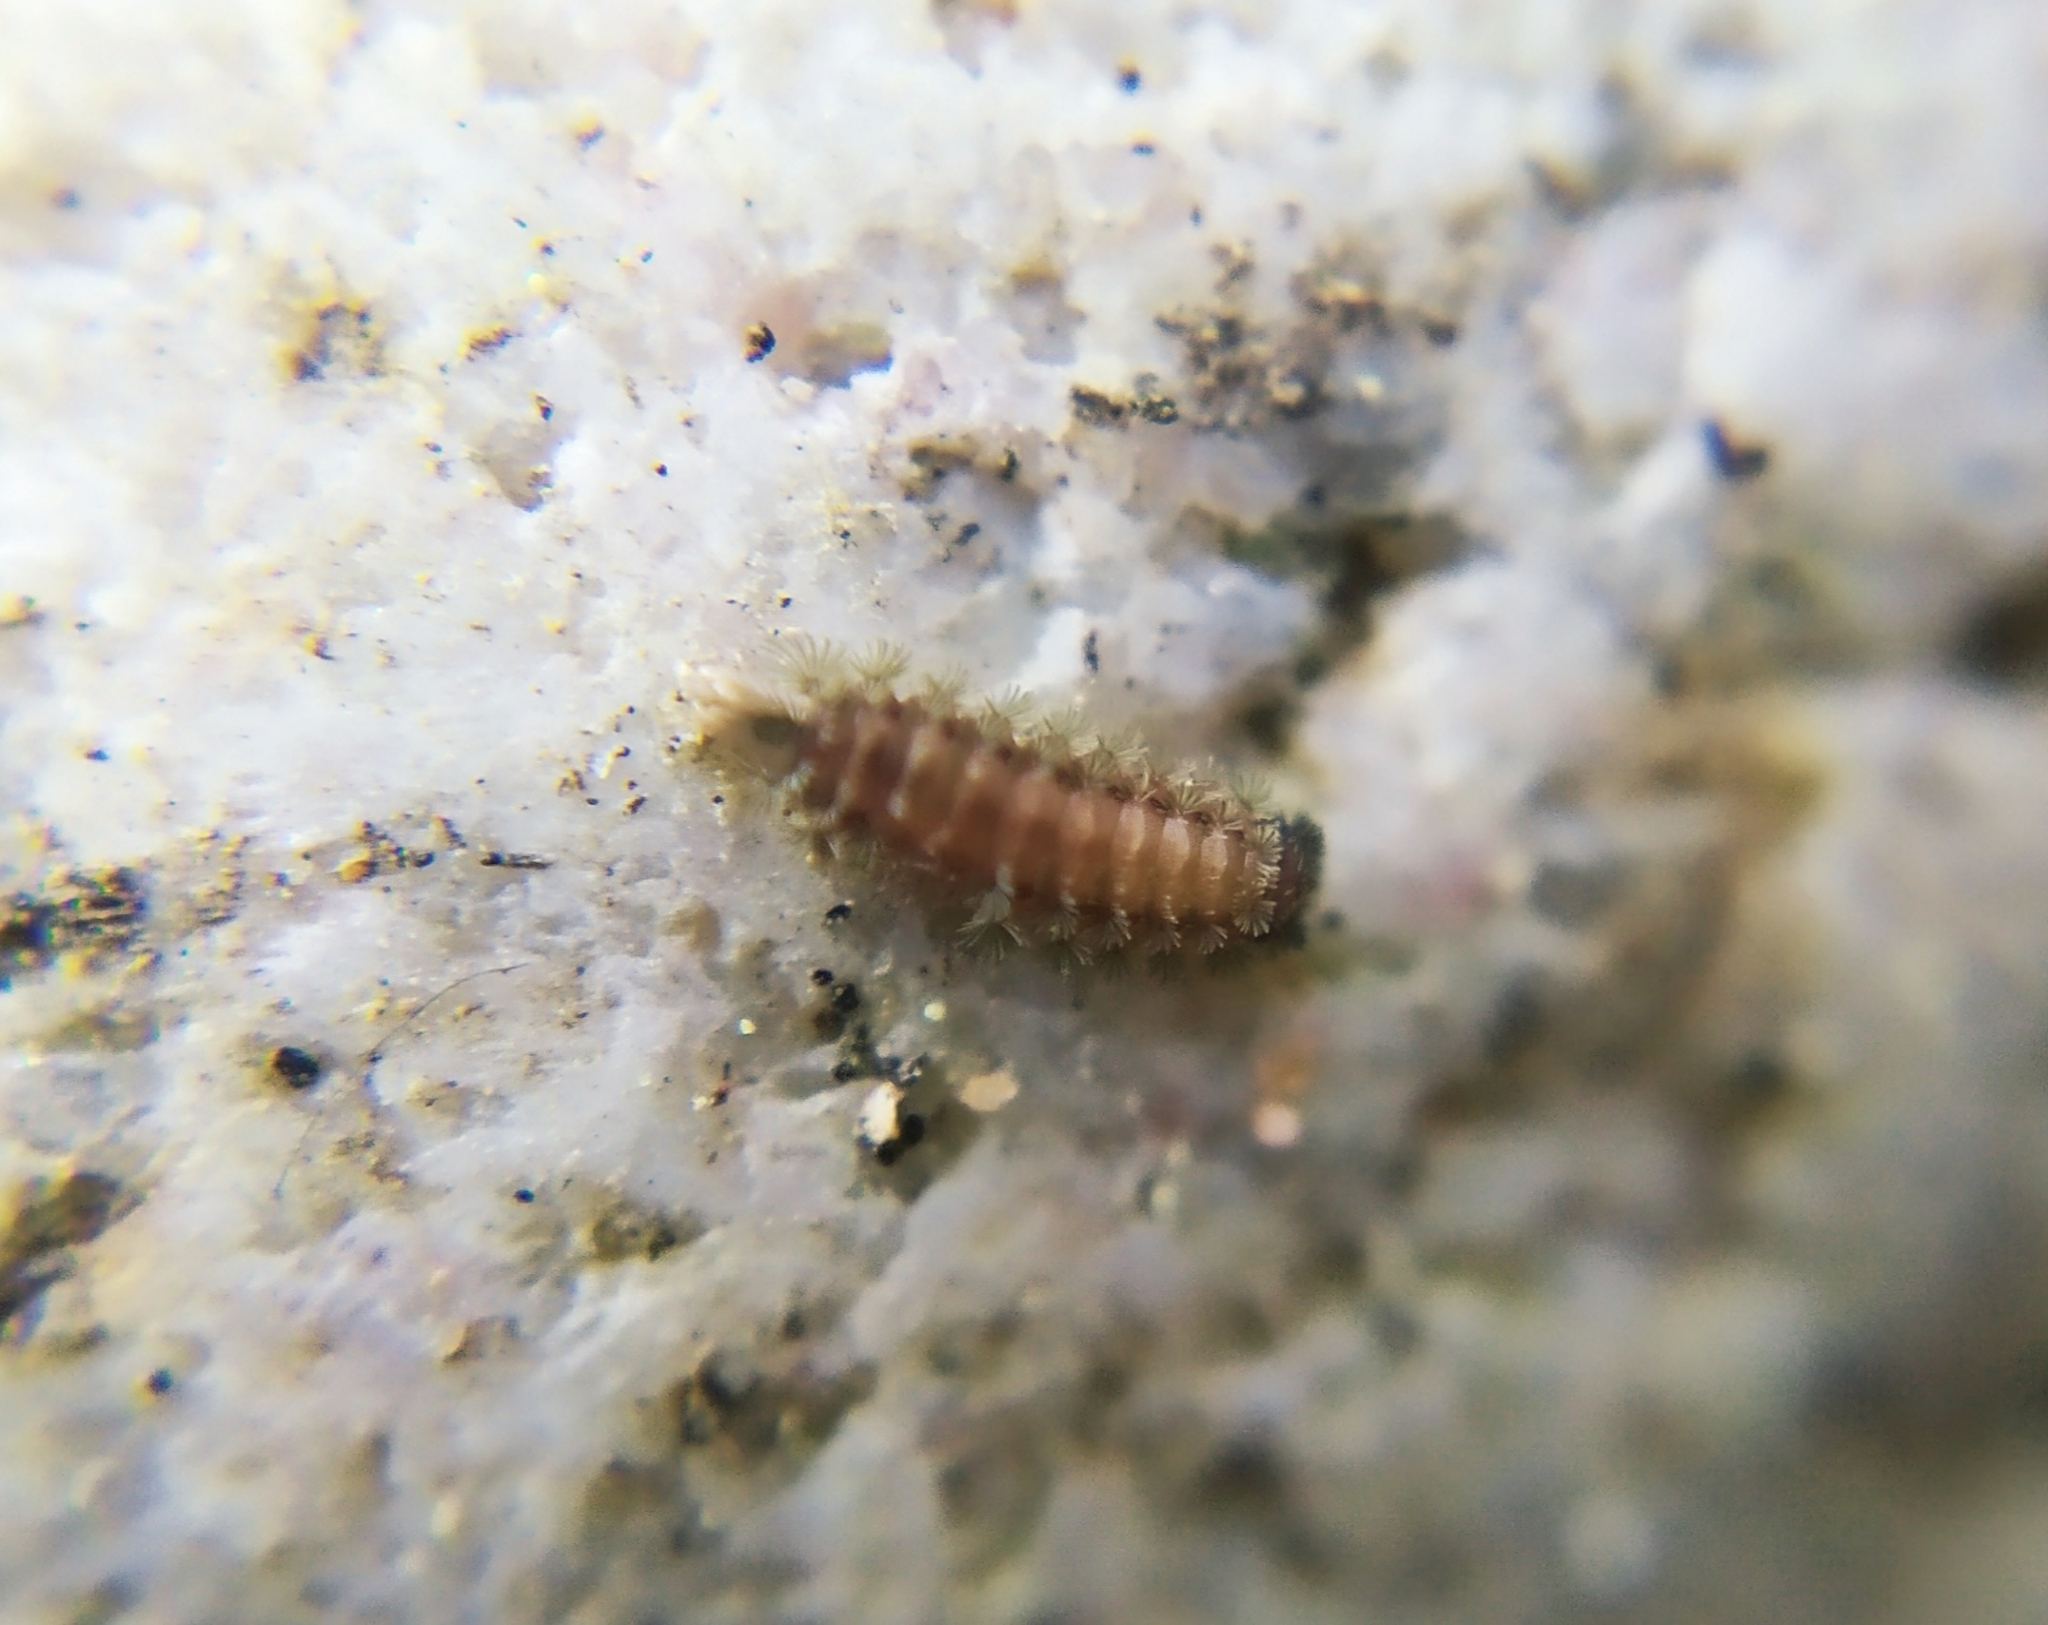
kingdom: Animalia
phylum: Arthropoda
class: Diplopoda
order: Polyxenida
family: Polyxenidae
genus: Polyxenus
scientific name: Polyxenus lagurus
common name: Bristly millipede
